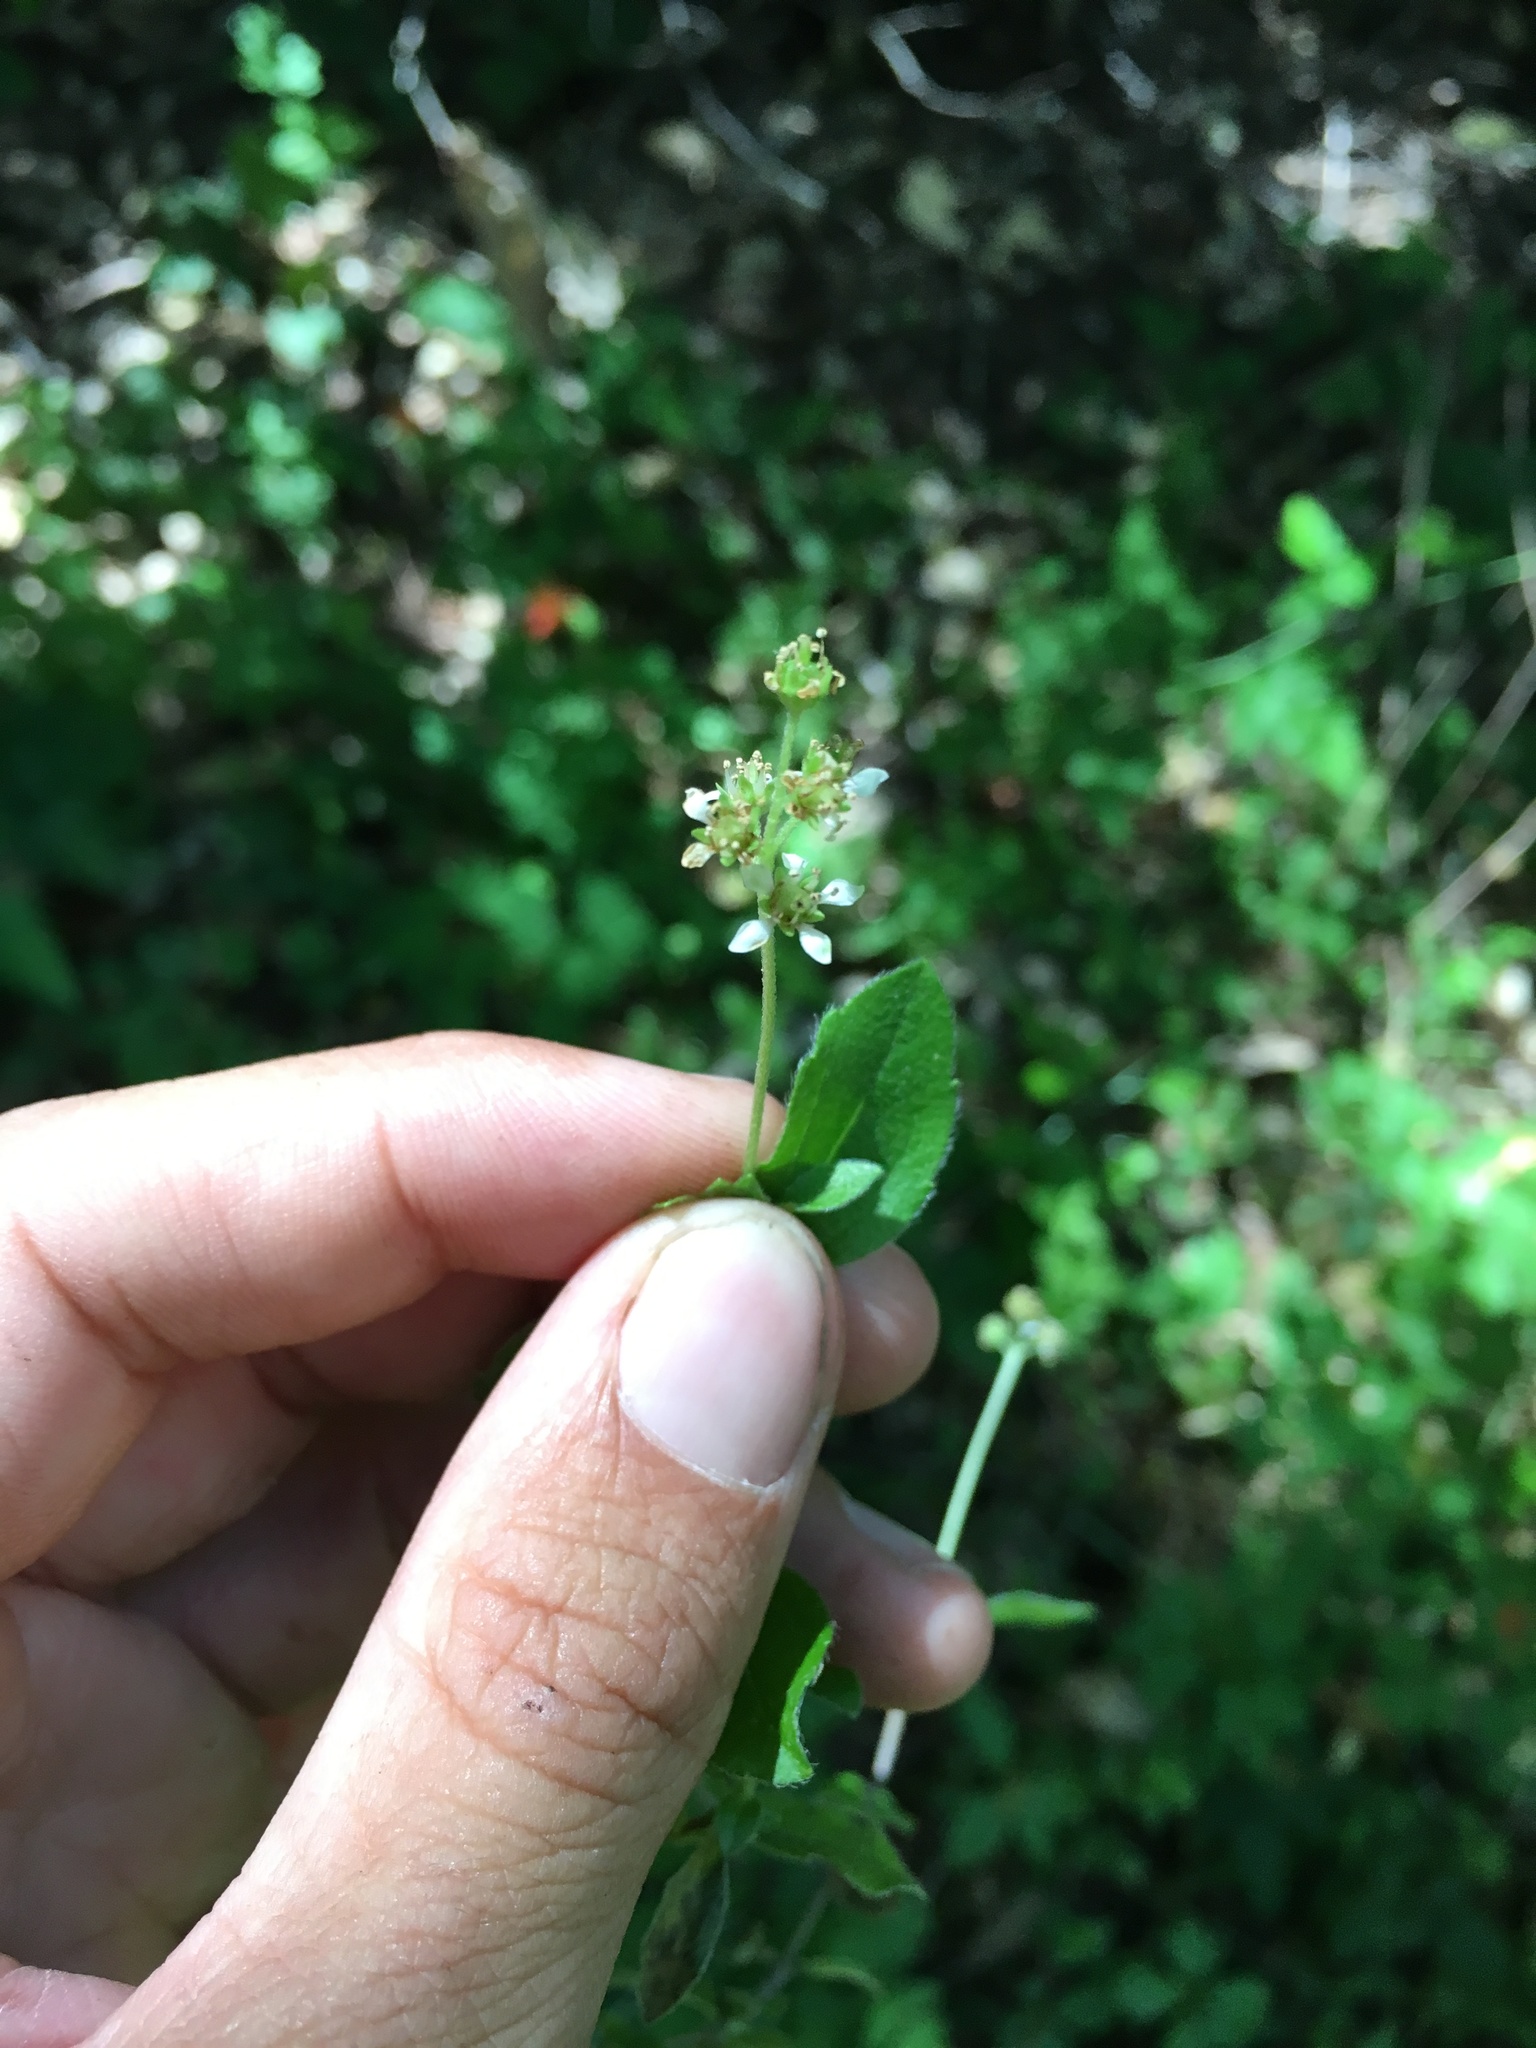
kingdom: Plantae
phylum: Tracheophyta
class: Magnoliopsida
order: Cornales
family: Hydrangeaceae
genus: Whipplea
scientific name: Whipplea modesta
